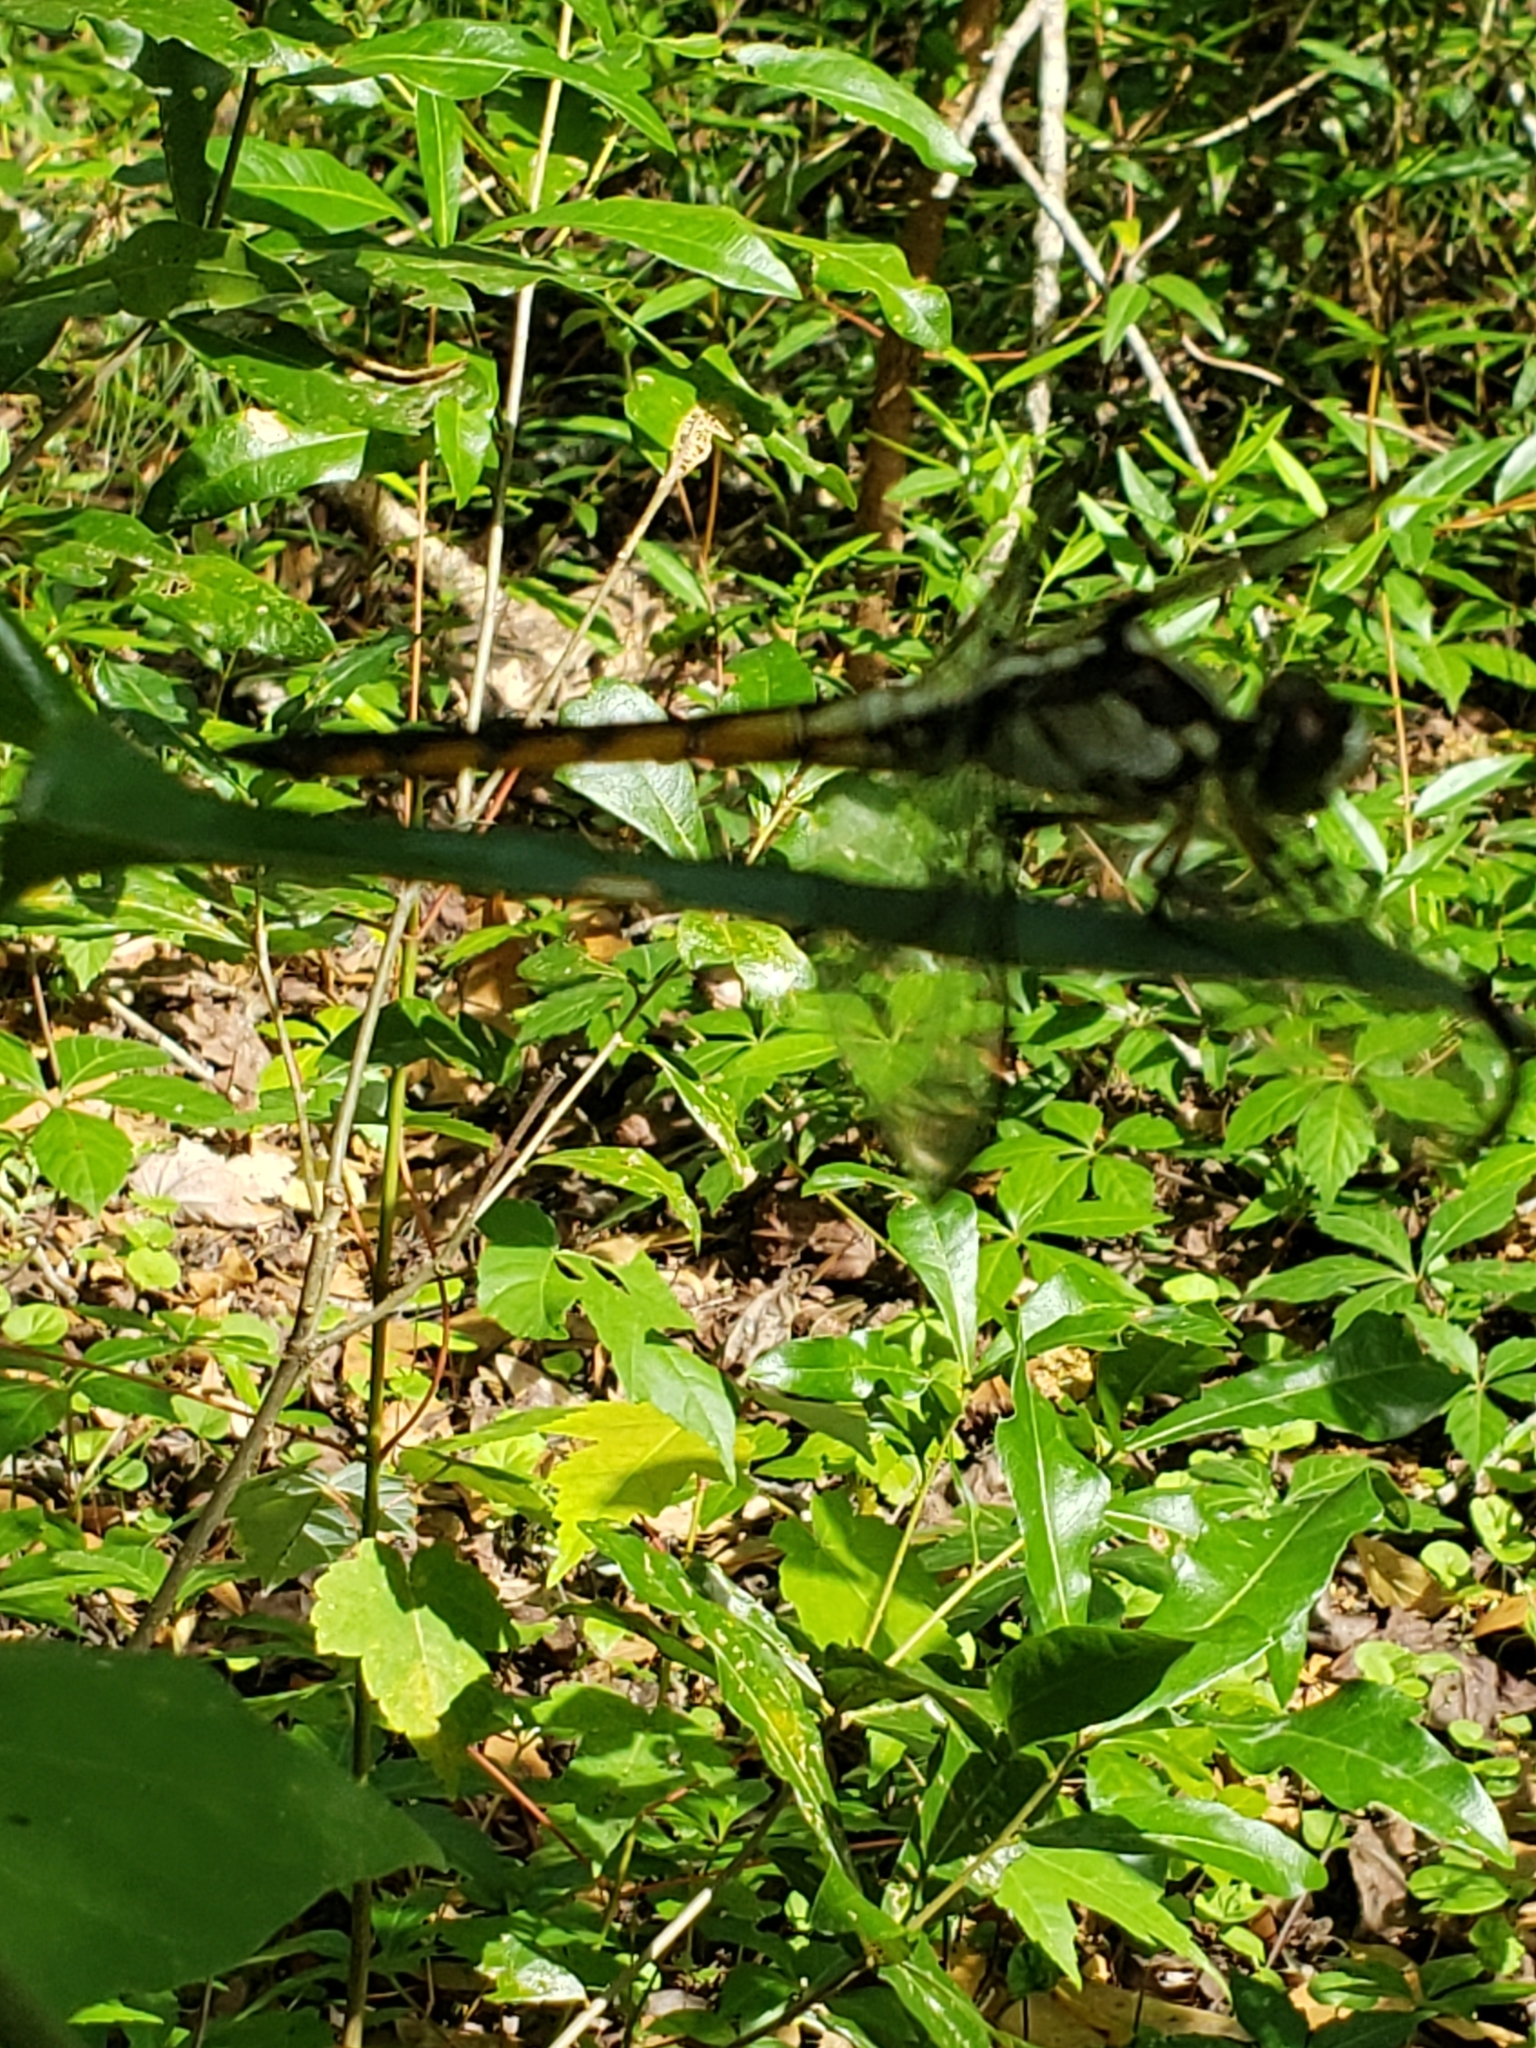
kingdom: Animalia
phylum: Arthropoda
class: Insecta
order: Odonata
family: Libellulidae
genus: Libellula
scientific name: Libellula vibrans
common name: Great blue skimmer
